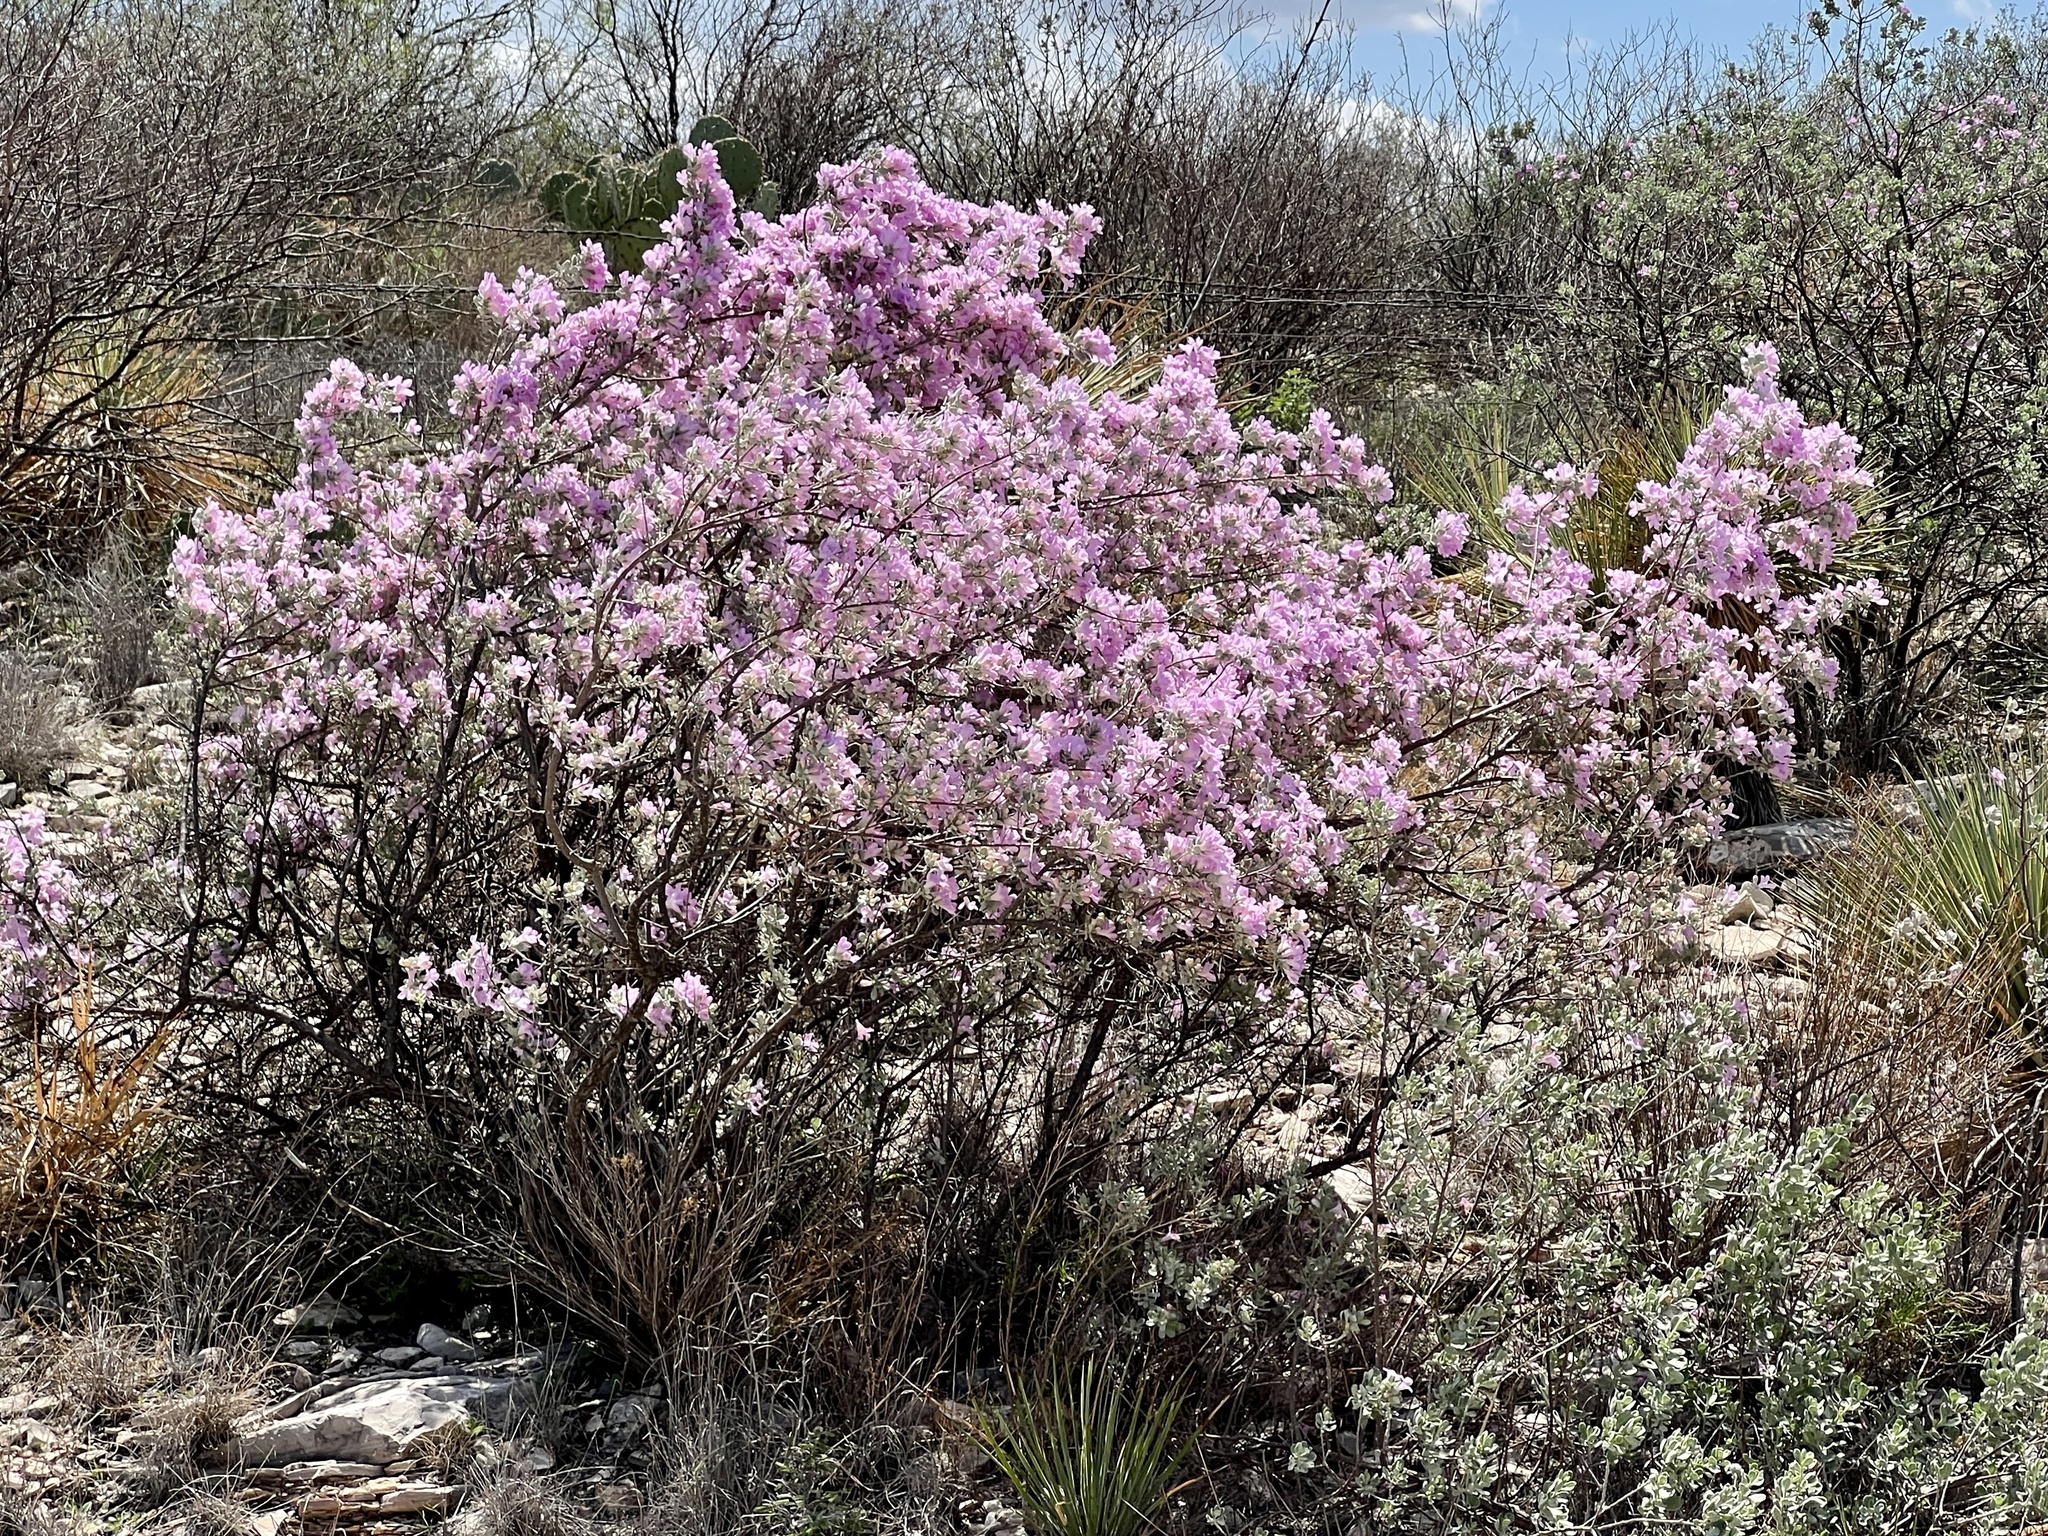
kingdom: Plantae
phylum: Tracheophyta
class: Magnoliopsida
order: Lamiales
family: Scrophulariaceae
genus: Leucophyllum
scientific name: Leucophyllum frutescens
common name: Texas silverleaf
